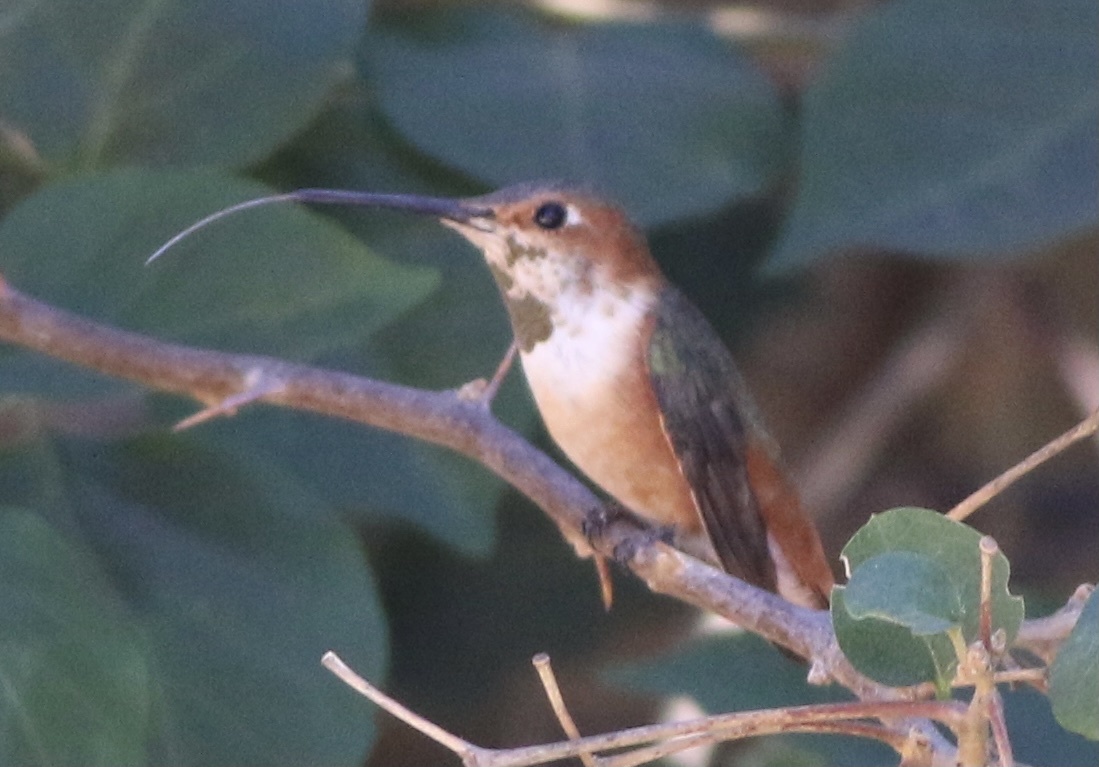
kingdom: Animalia
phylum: Chordata
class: Aves
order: Apodiformes
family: Trochilidae
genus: Selasphorus
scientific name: Selasphorus sasin
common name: Allen's hummingbird
